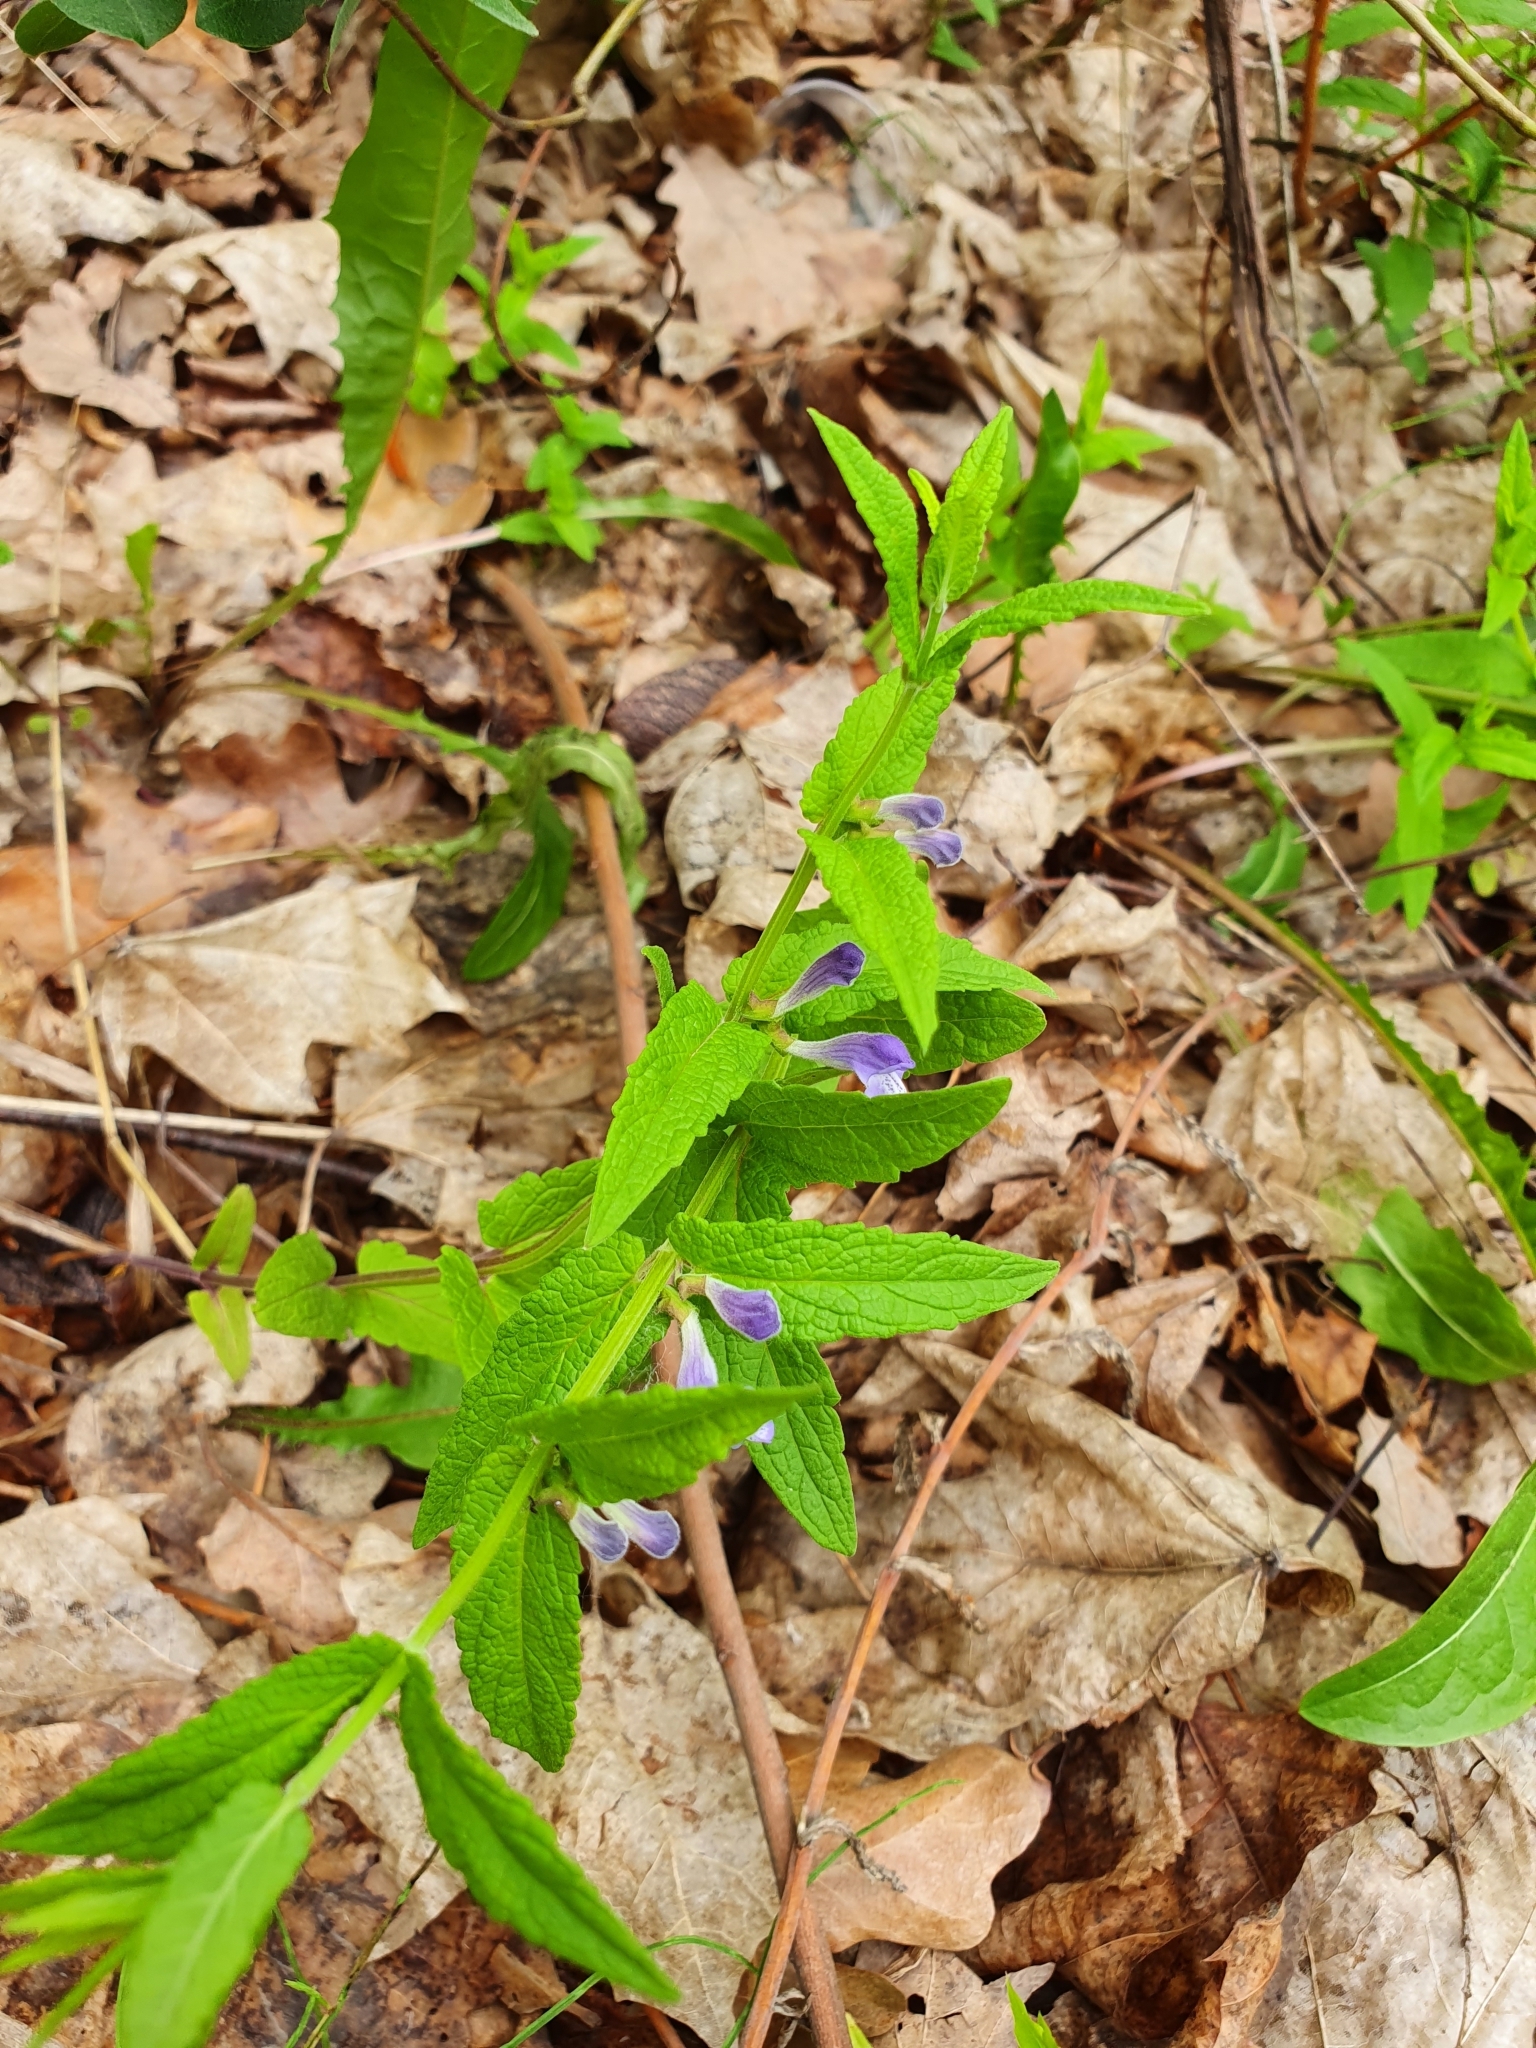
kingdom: Plantae
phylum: Tracheophyta
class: Magnoliopsida
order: Lamiales
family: Lamiaceae
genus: Scutellaria
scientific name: Scutellaria galericulata
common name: Skullcap
